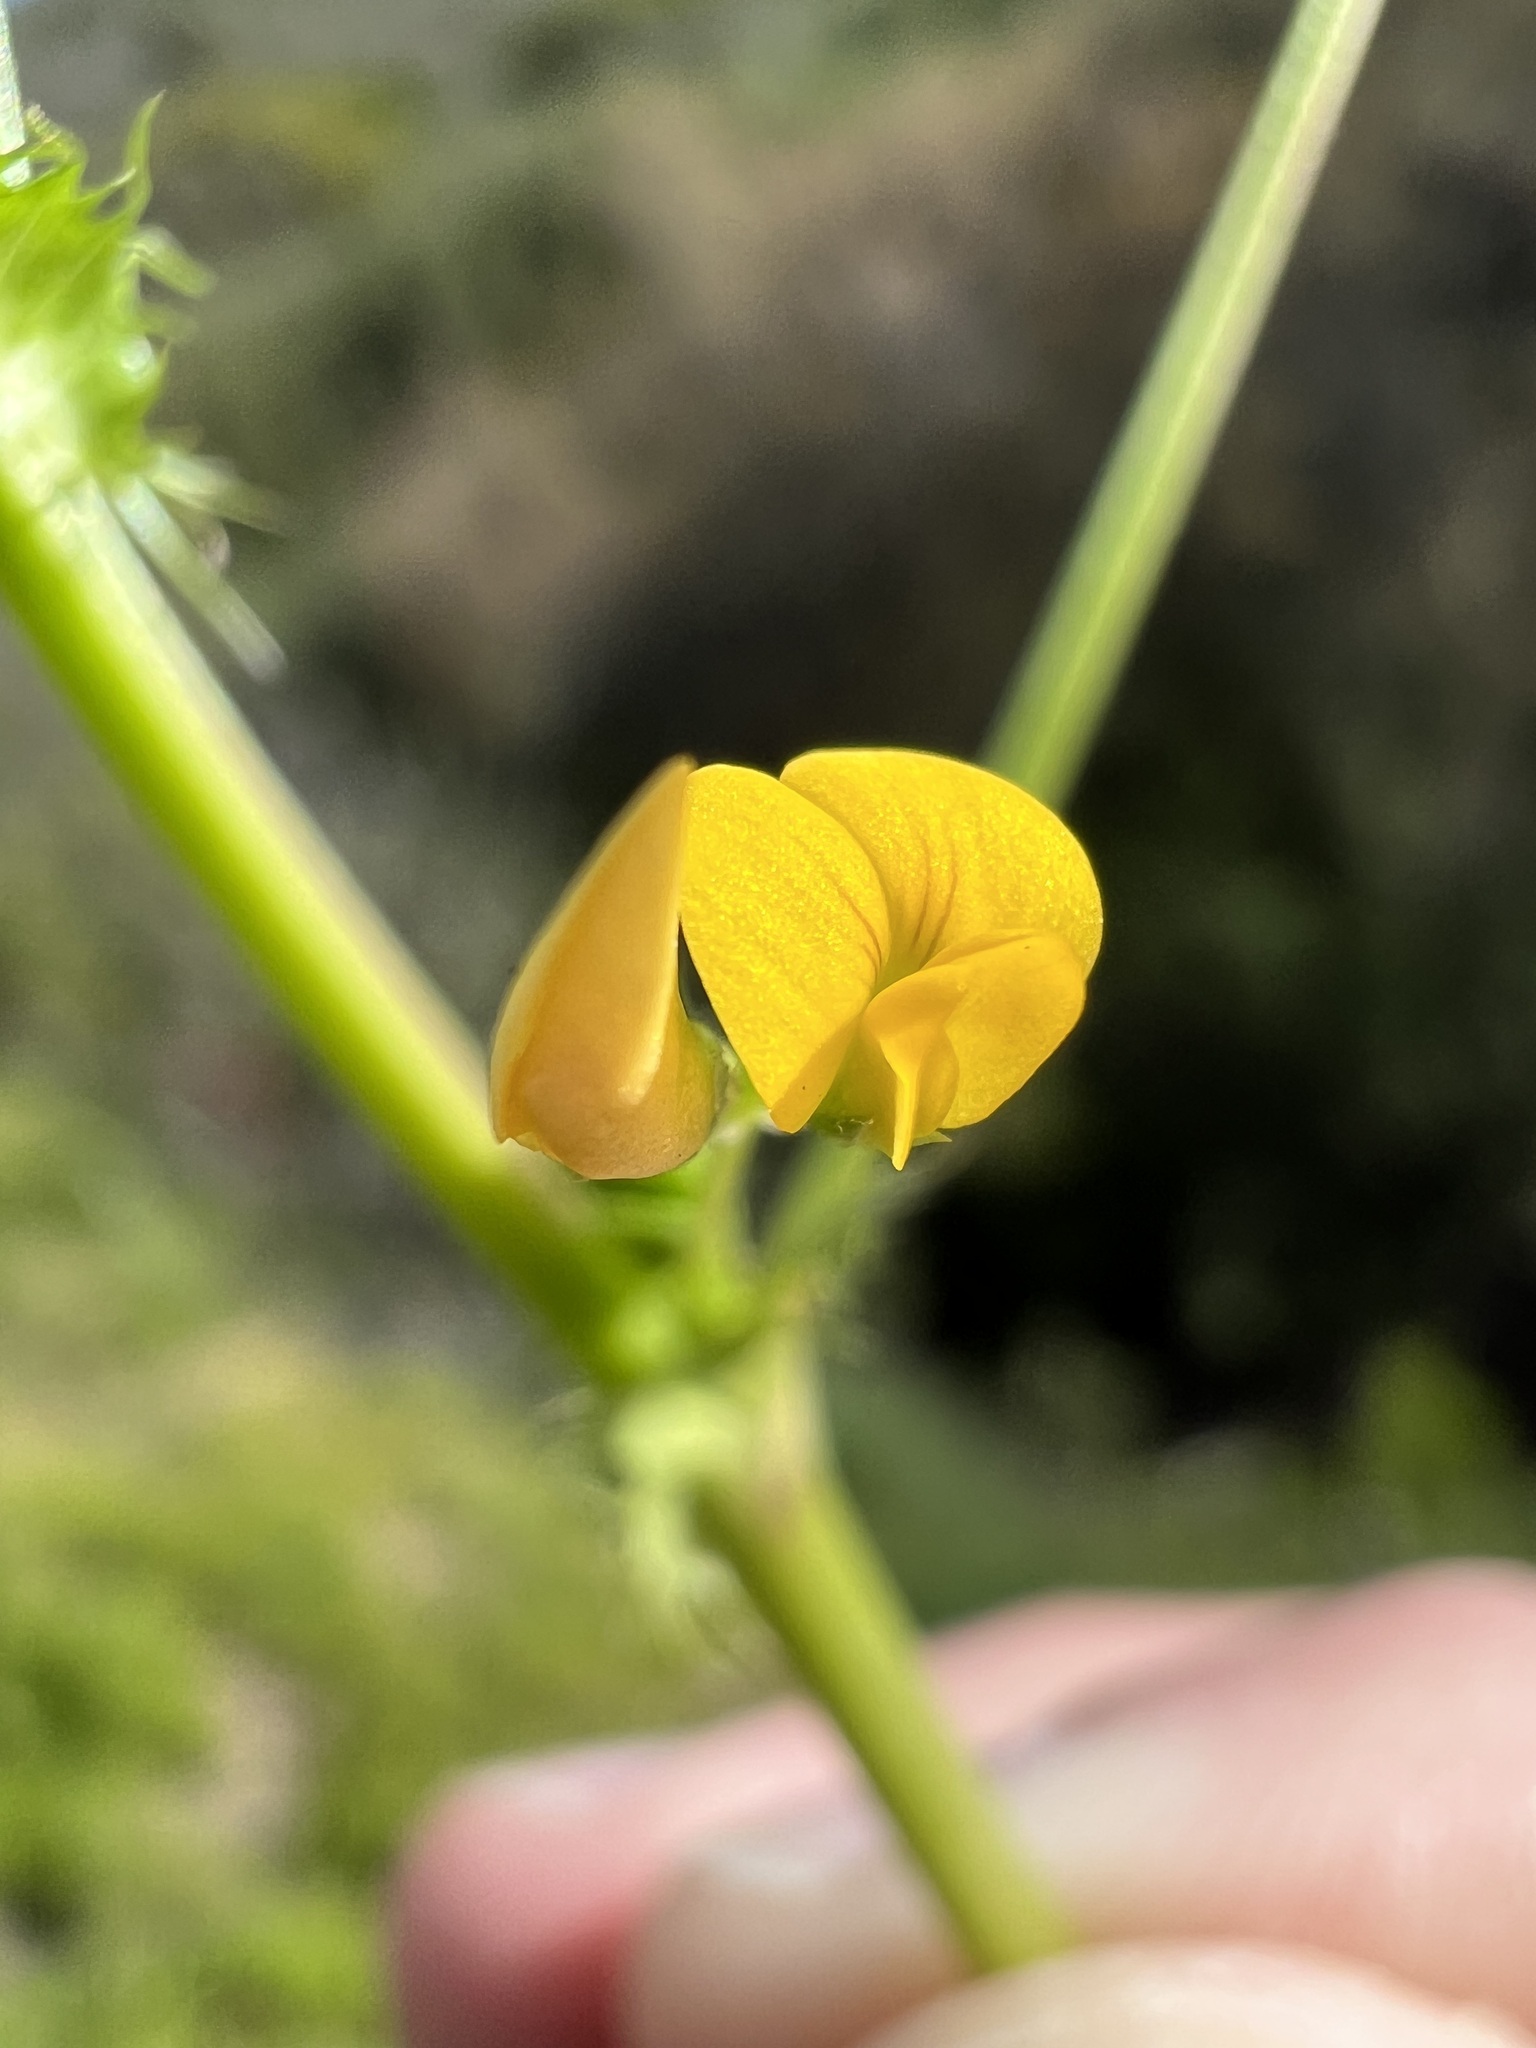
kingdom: Plantae
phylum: Tracheophyta
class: Magnoliopsida
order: Fabales
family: Fabaceae
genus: Medicago
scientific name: Medicago polymorpha
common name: Burclover
